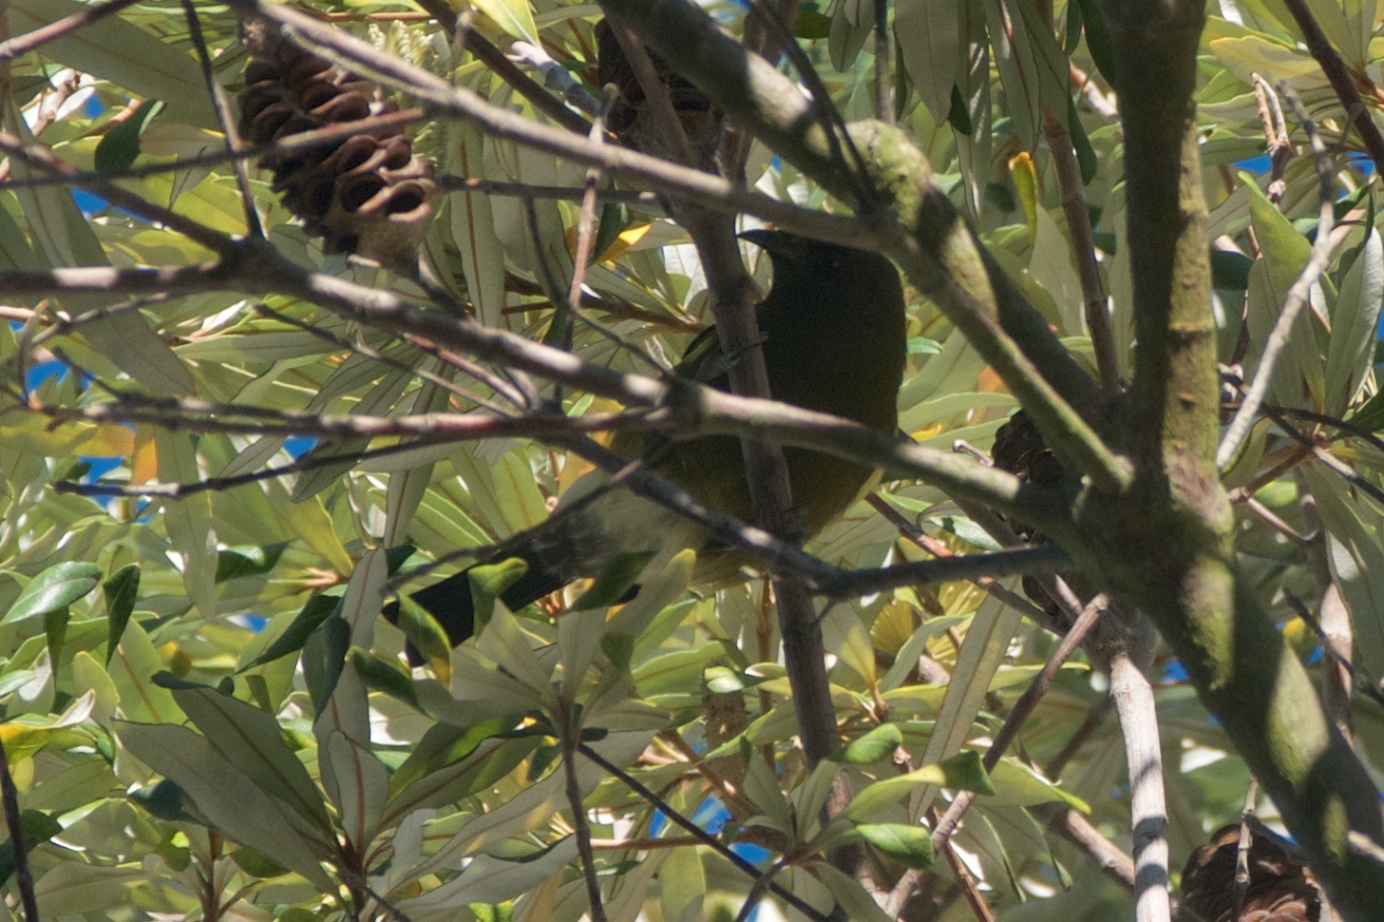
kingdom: Animalia
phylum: Chordata
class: Aves
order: Passeriformes
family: Meliphagidae
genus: Anthornis
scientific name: Anthornis melanura
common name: New zealand bellbird
